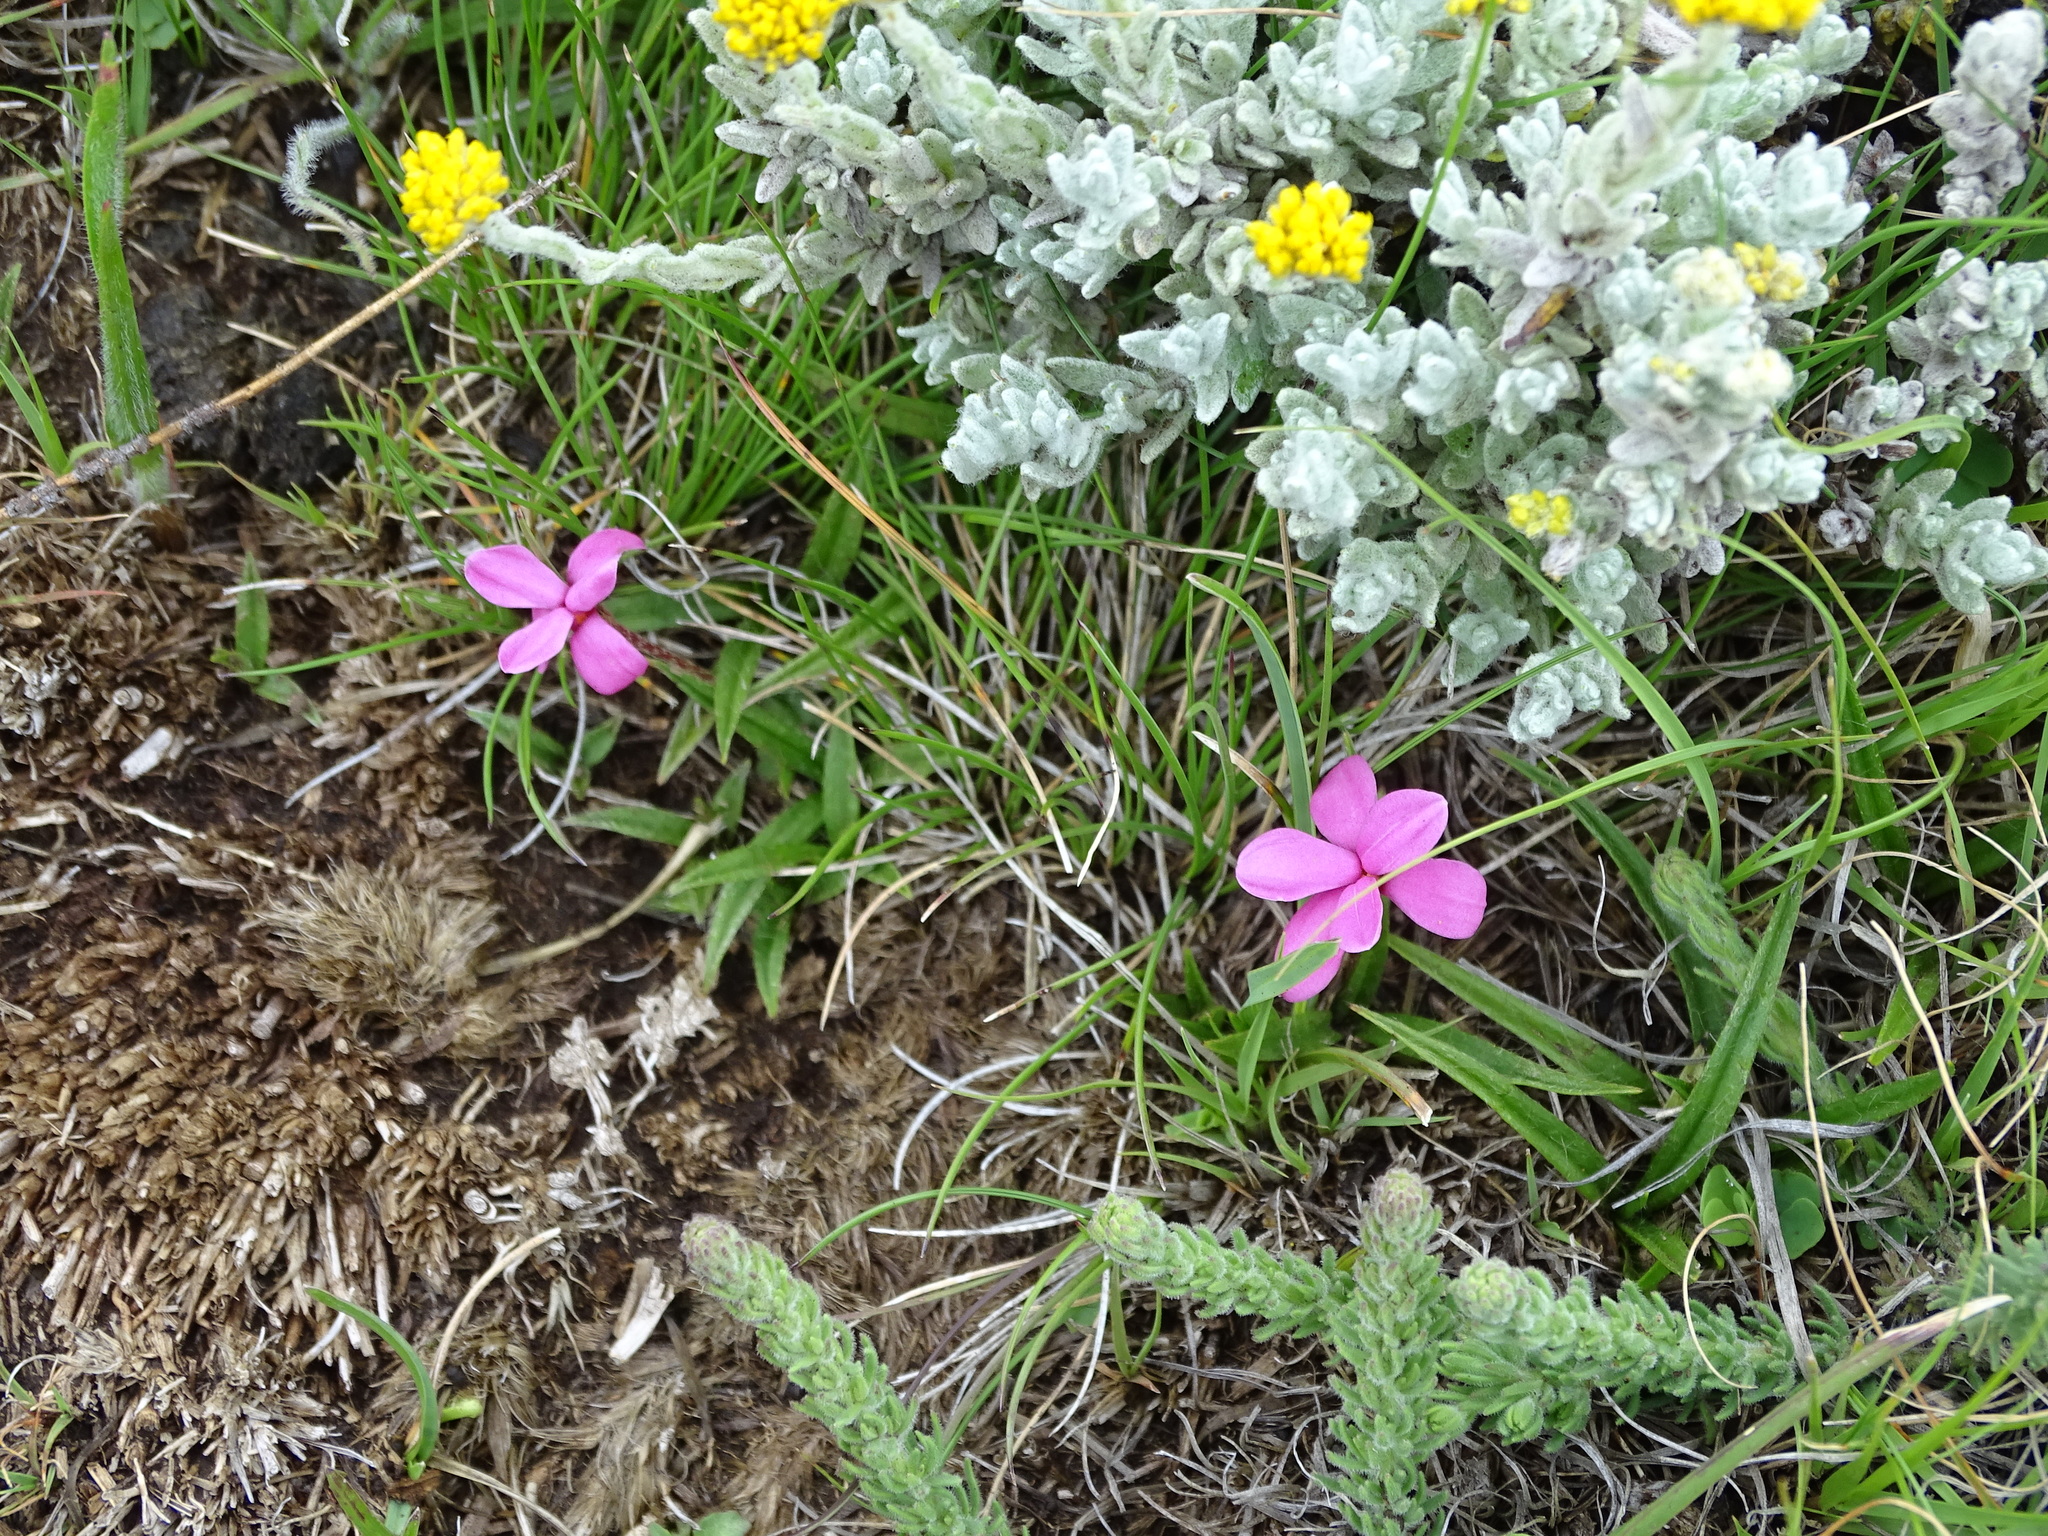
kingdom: Plantae
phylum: Tracheophyta
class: Liliopsida
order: Asparagales
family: Hypoxidaceae
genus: Hypoxis
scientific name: Hypoxis baurii
